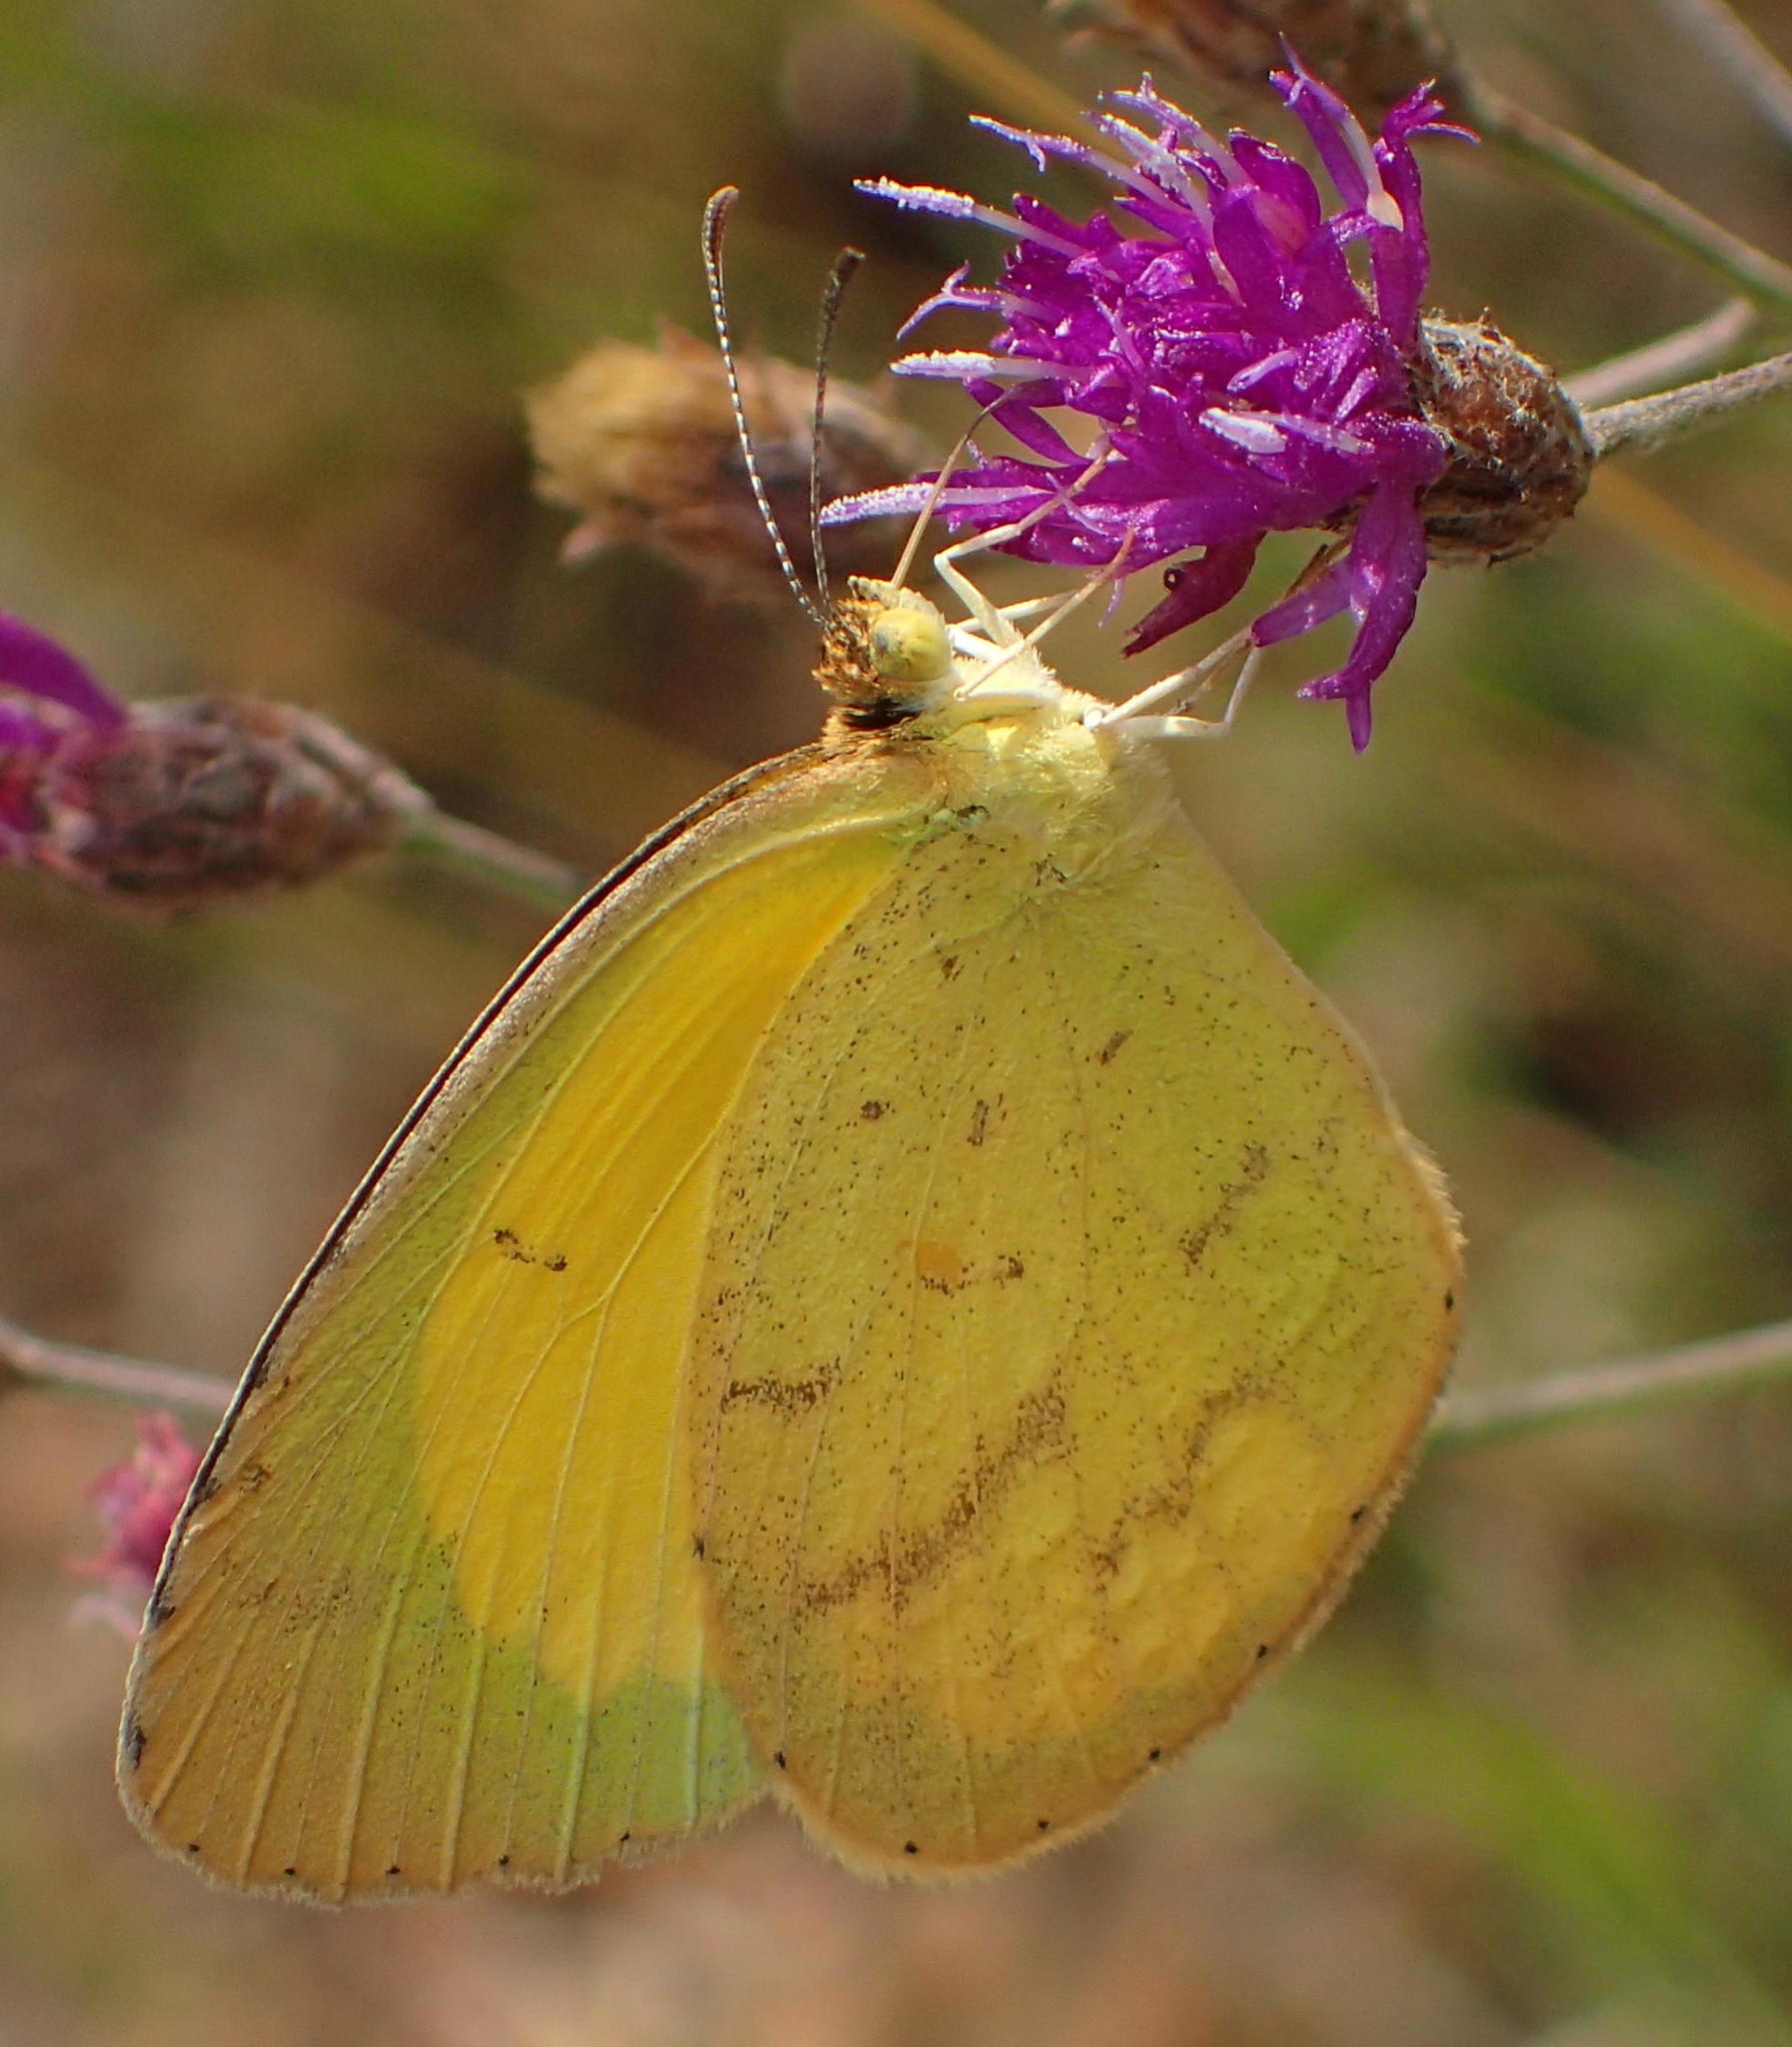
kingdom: Animalia
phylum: Arthropoda
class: Insecta
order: Lepidoptera
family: Pieridae
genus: Eurema
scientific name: Eurema brigitta
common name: Small grass yellow
